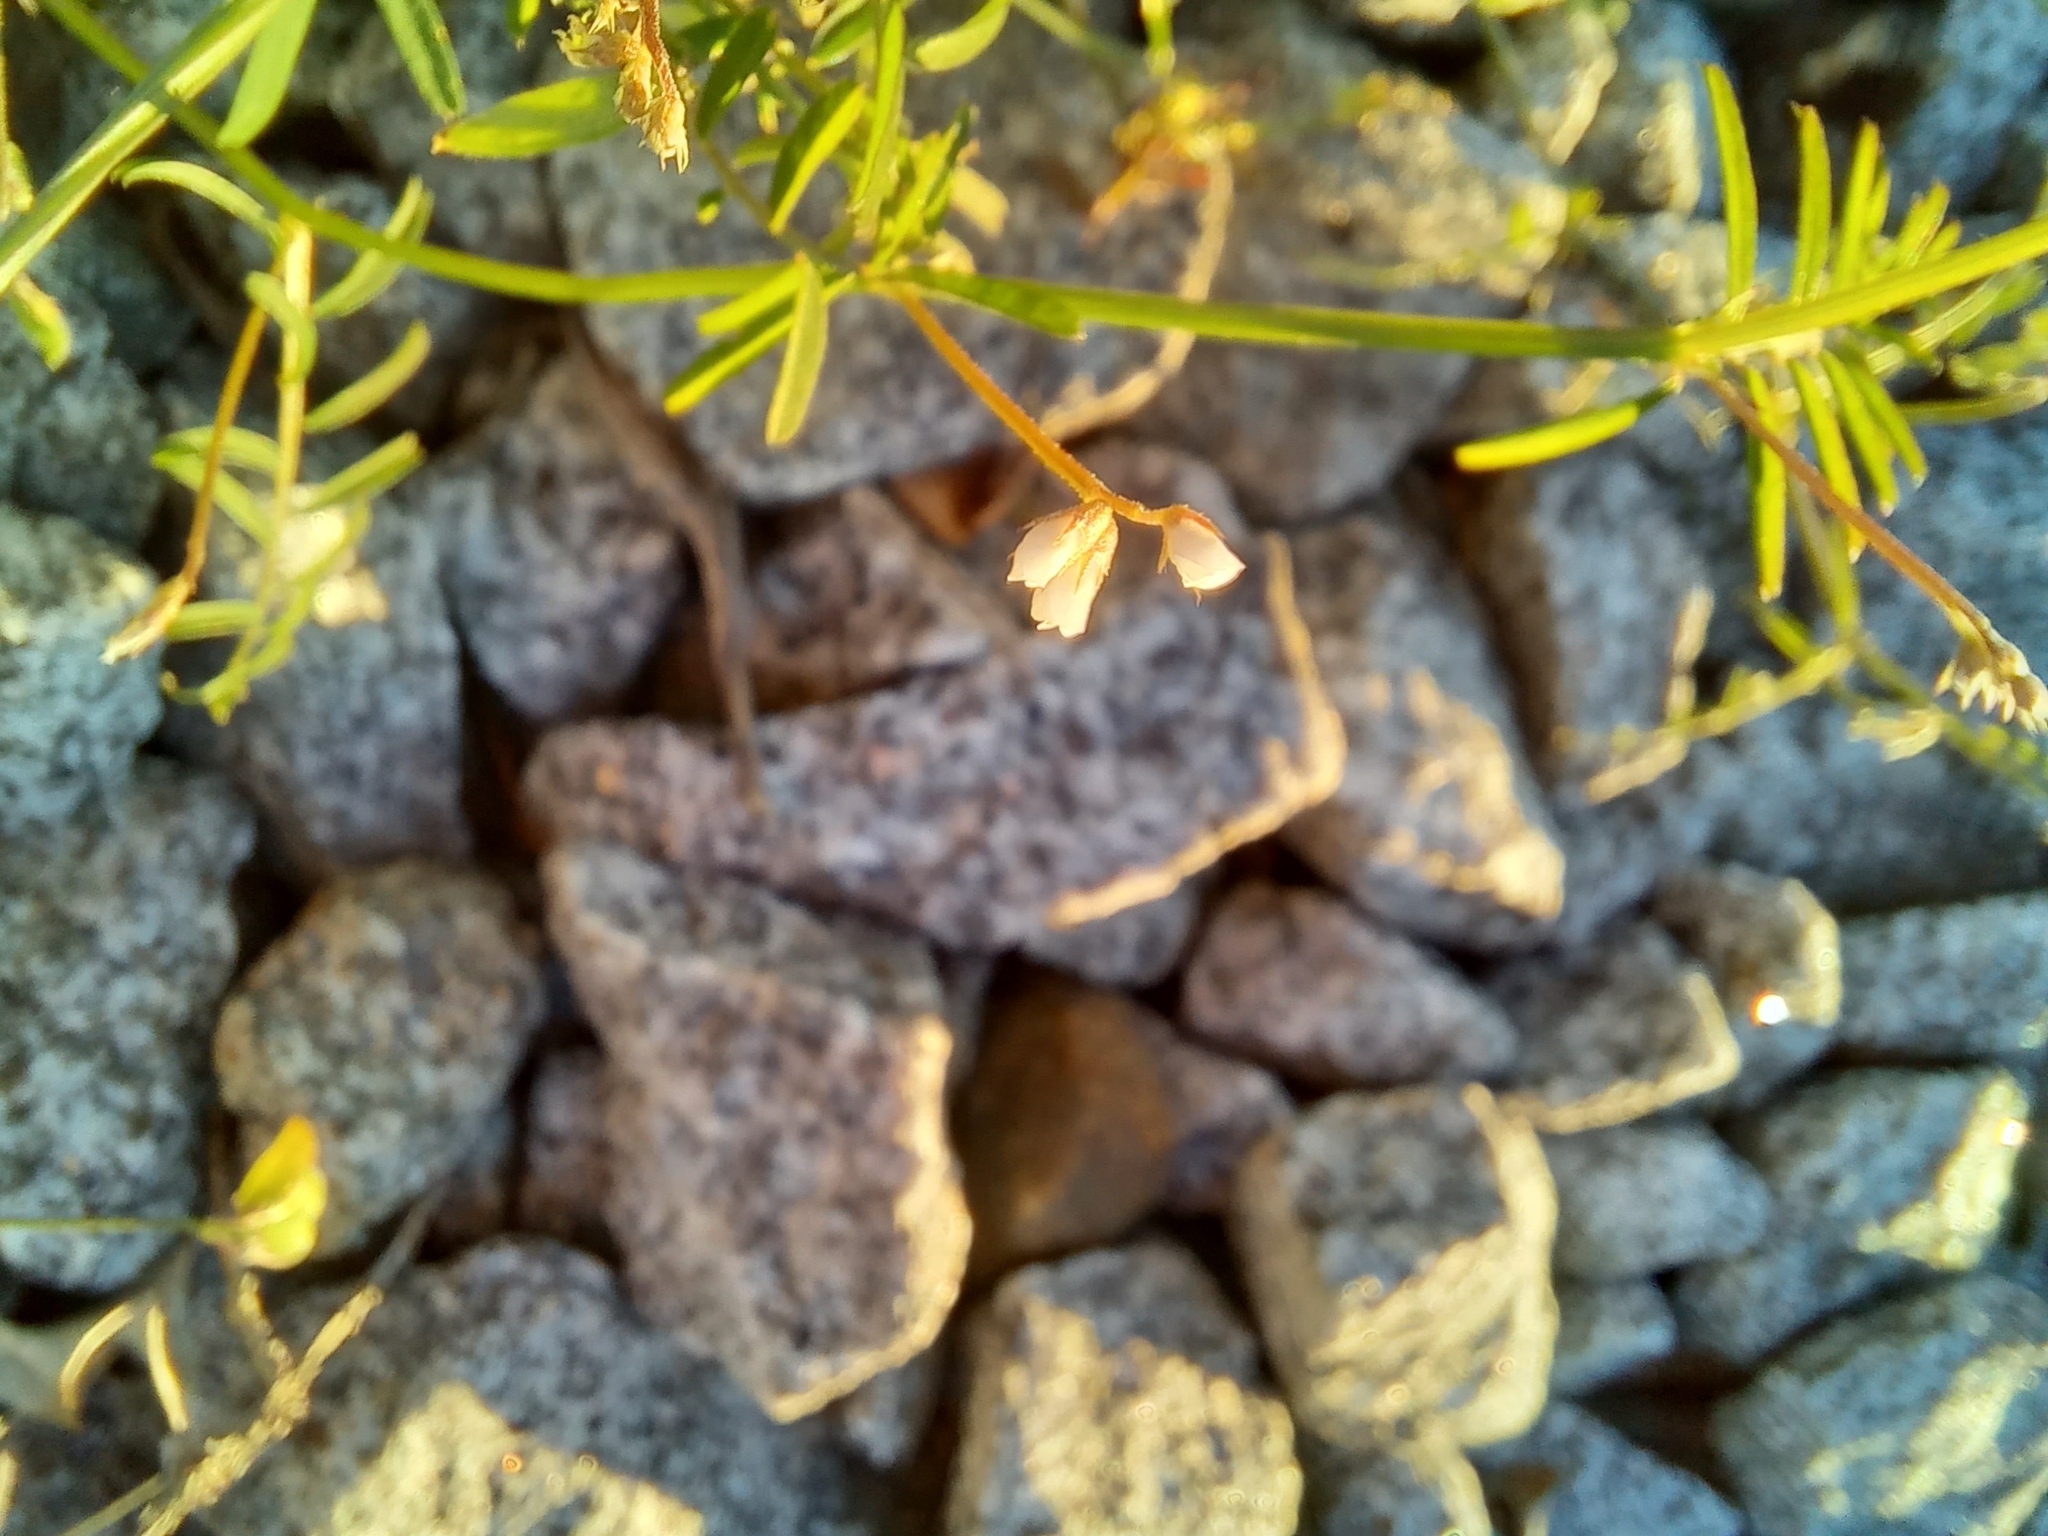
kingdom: Plantae
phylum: Tracheophyta
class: Magnoliopsida
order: Fabales
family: Fabaceae
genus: Vicia
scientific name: Vicia hirsuta
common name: Tiny vetch
